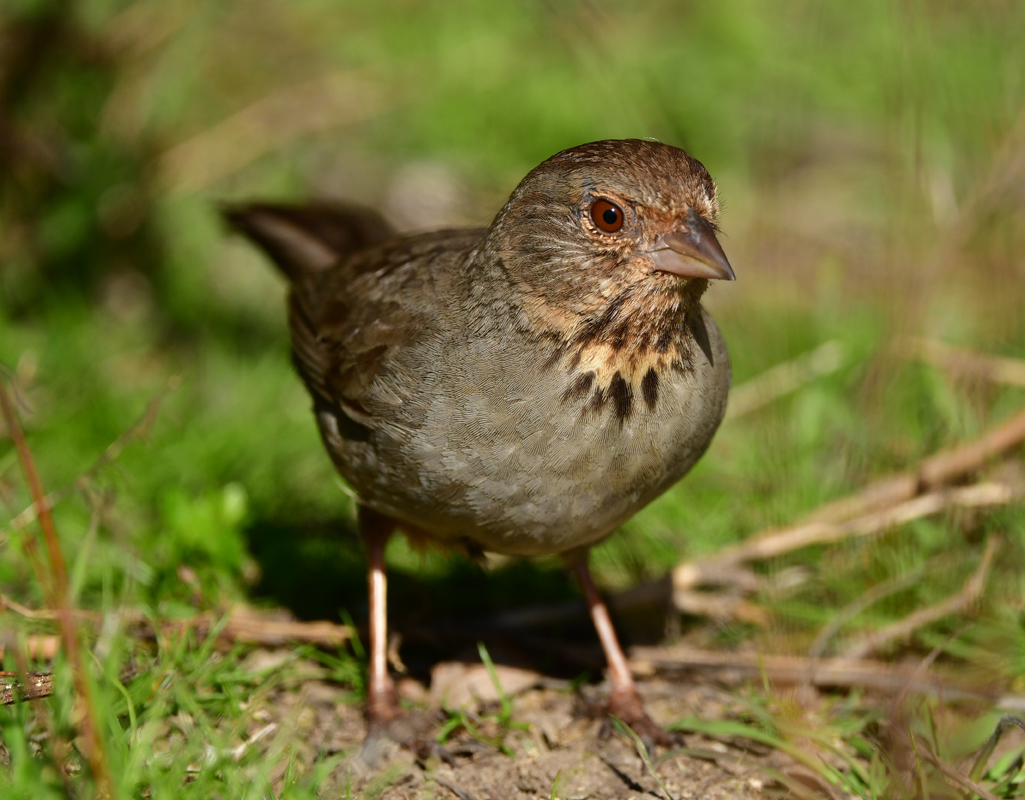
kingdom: Animalia
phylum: Chordata
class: Aves
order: Passeriformes
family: Passerellidae
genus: Melozone
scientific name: Melozone crissalis
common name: California towhee
